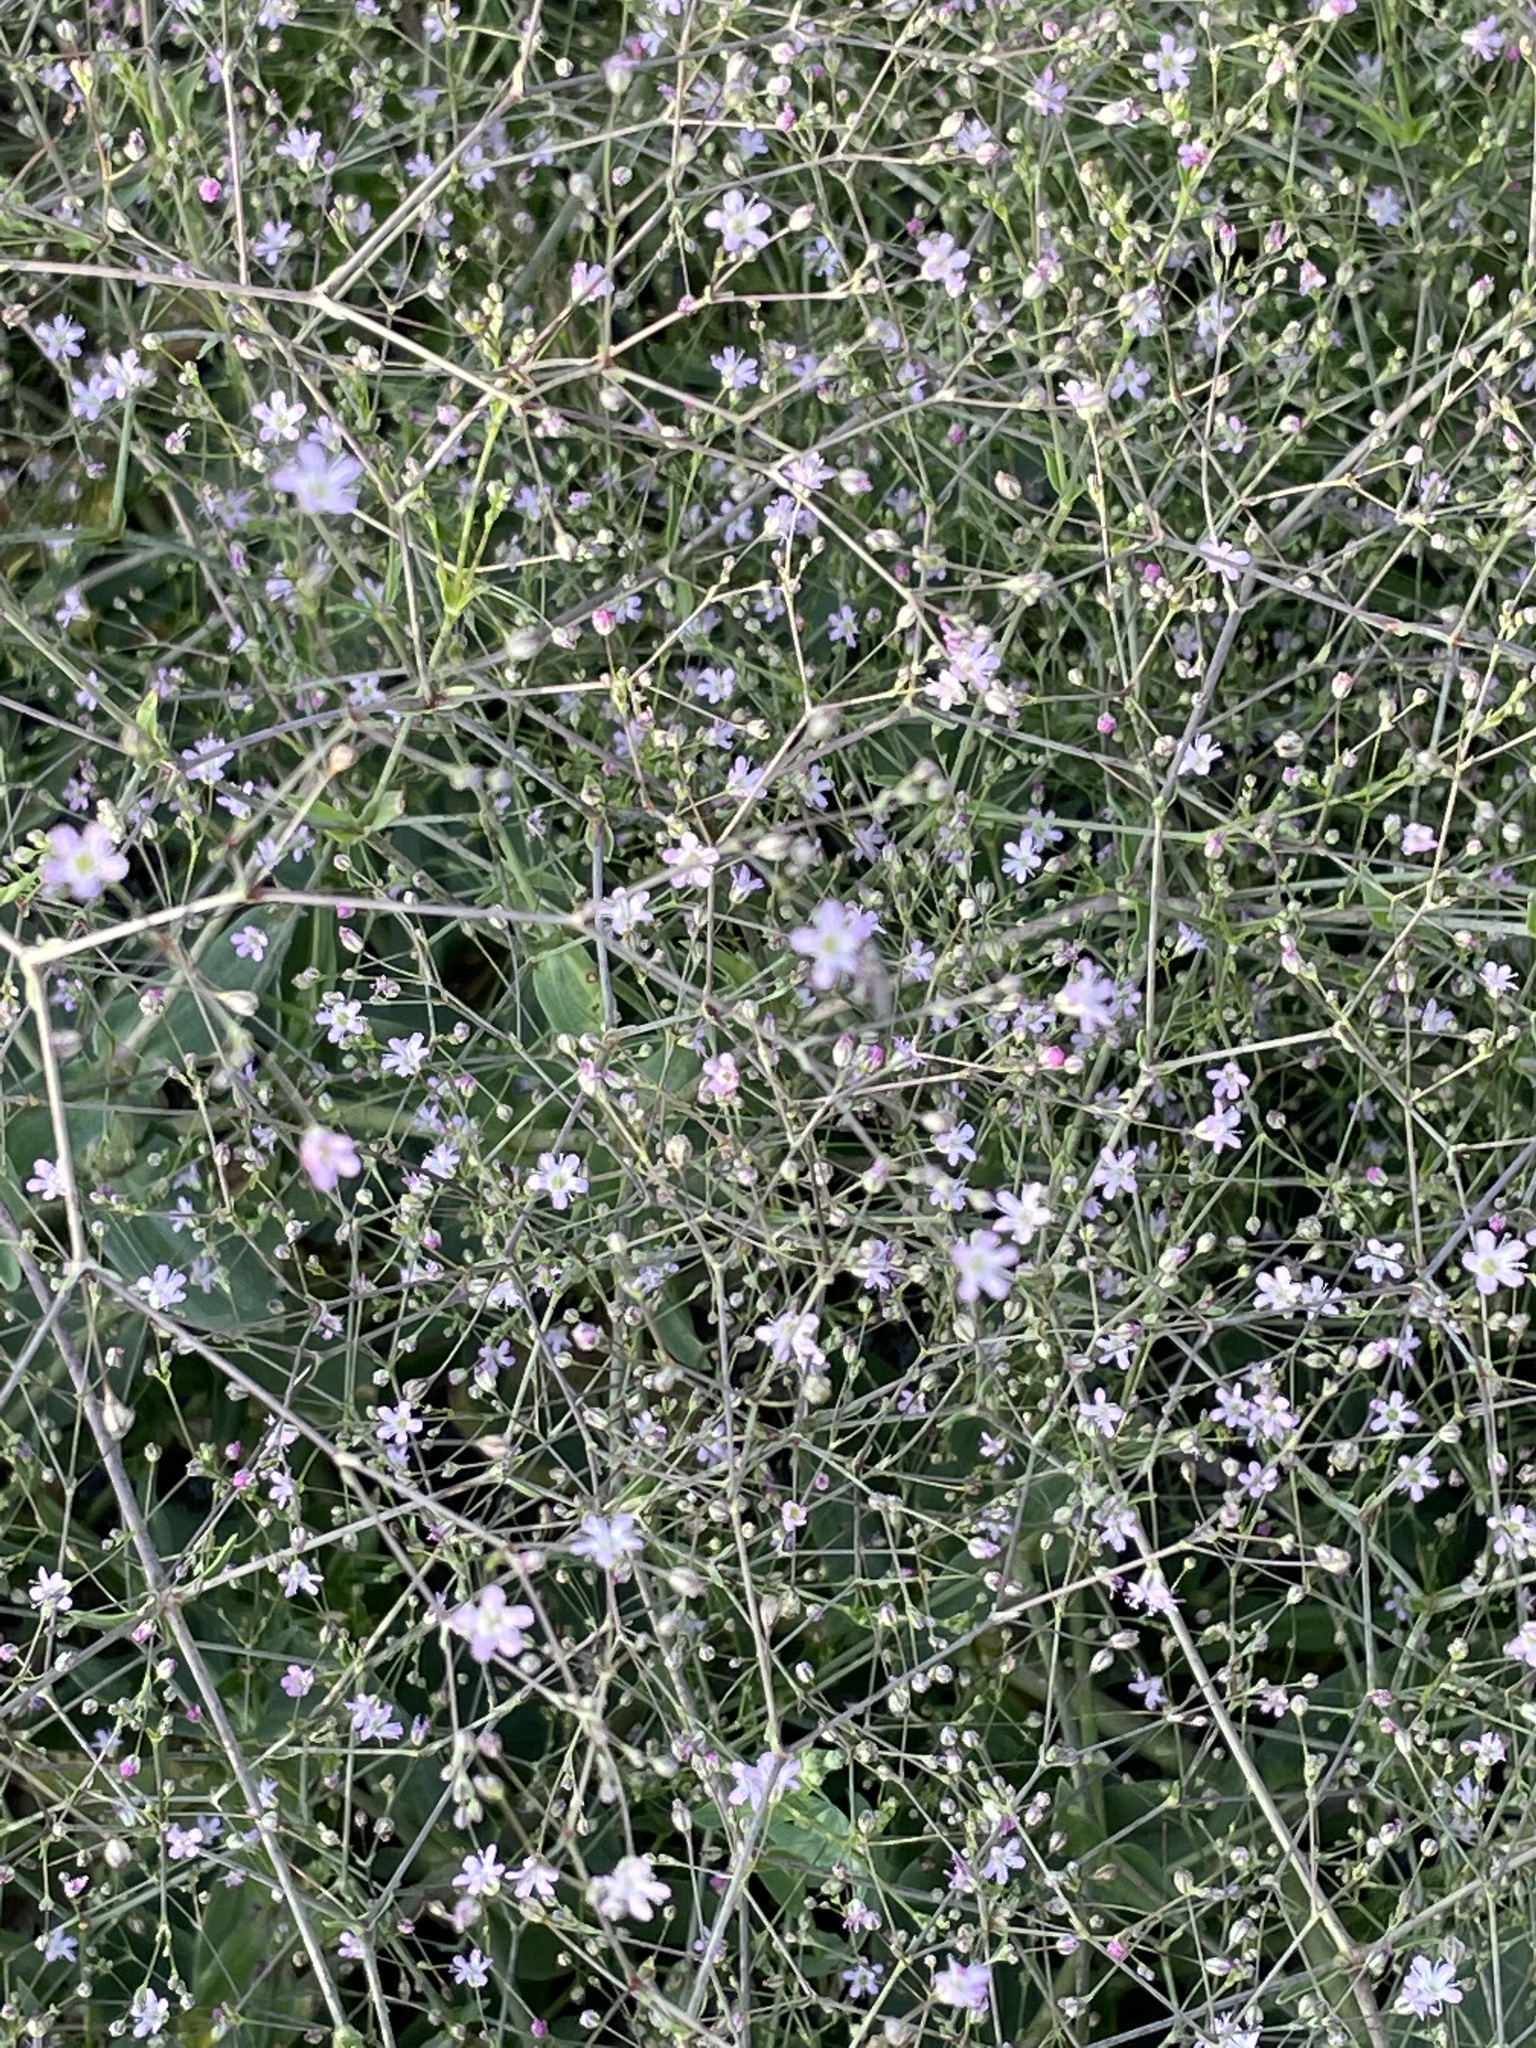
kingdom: Plantae
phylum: Tracheophyta
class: Magnoliopsida
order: Caryophyllales
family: Caryophyllaceae
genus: Gypsophila
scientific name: Gypsophila perfoliata
